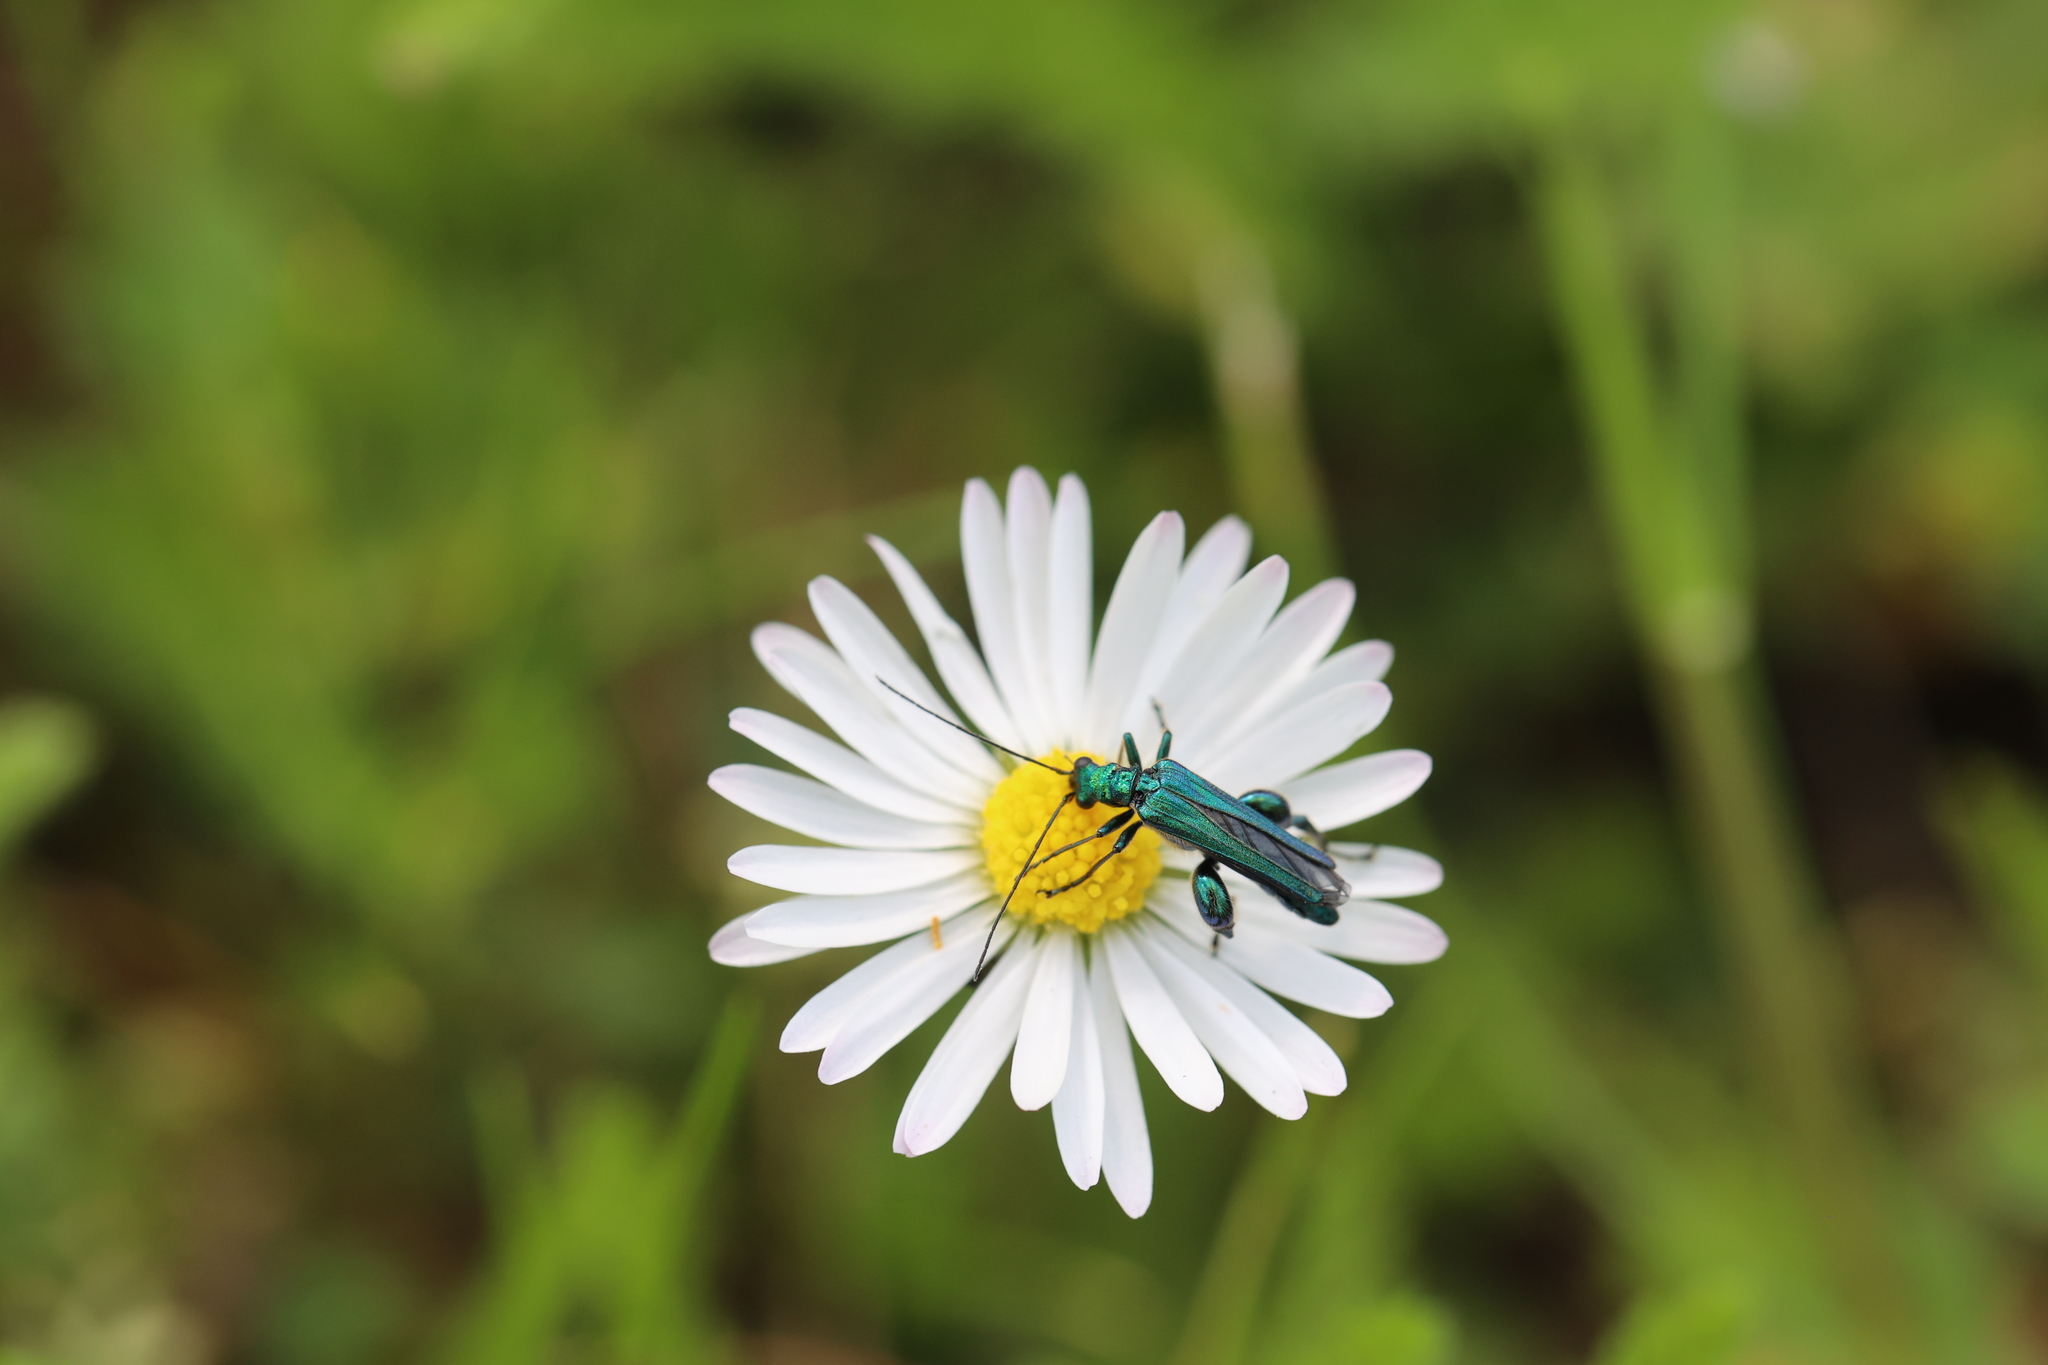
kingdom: Animalia
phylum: Arthropoda
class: Insecta
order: Coleoptera
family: Oedemeridae
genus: Oedemera
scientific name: Oedemera nobilis
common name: Swollen-thighed beetle
